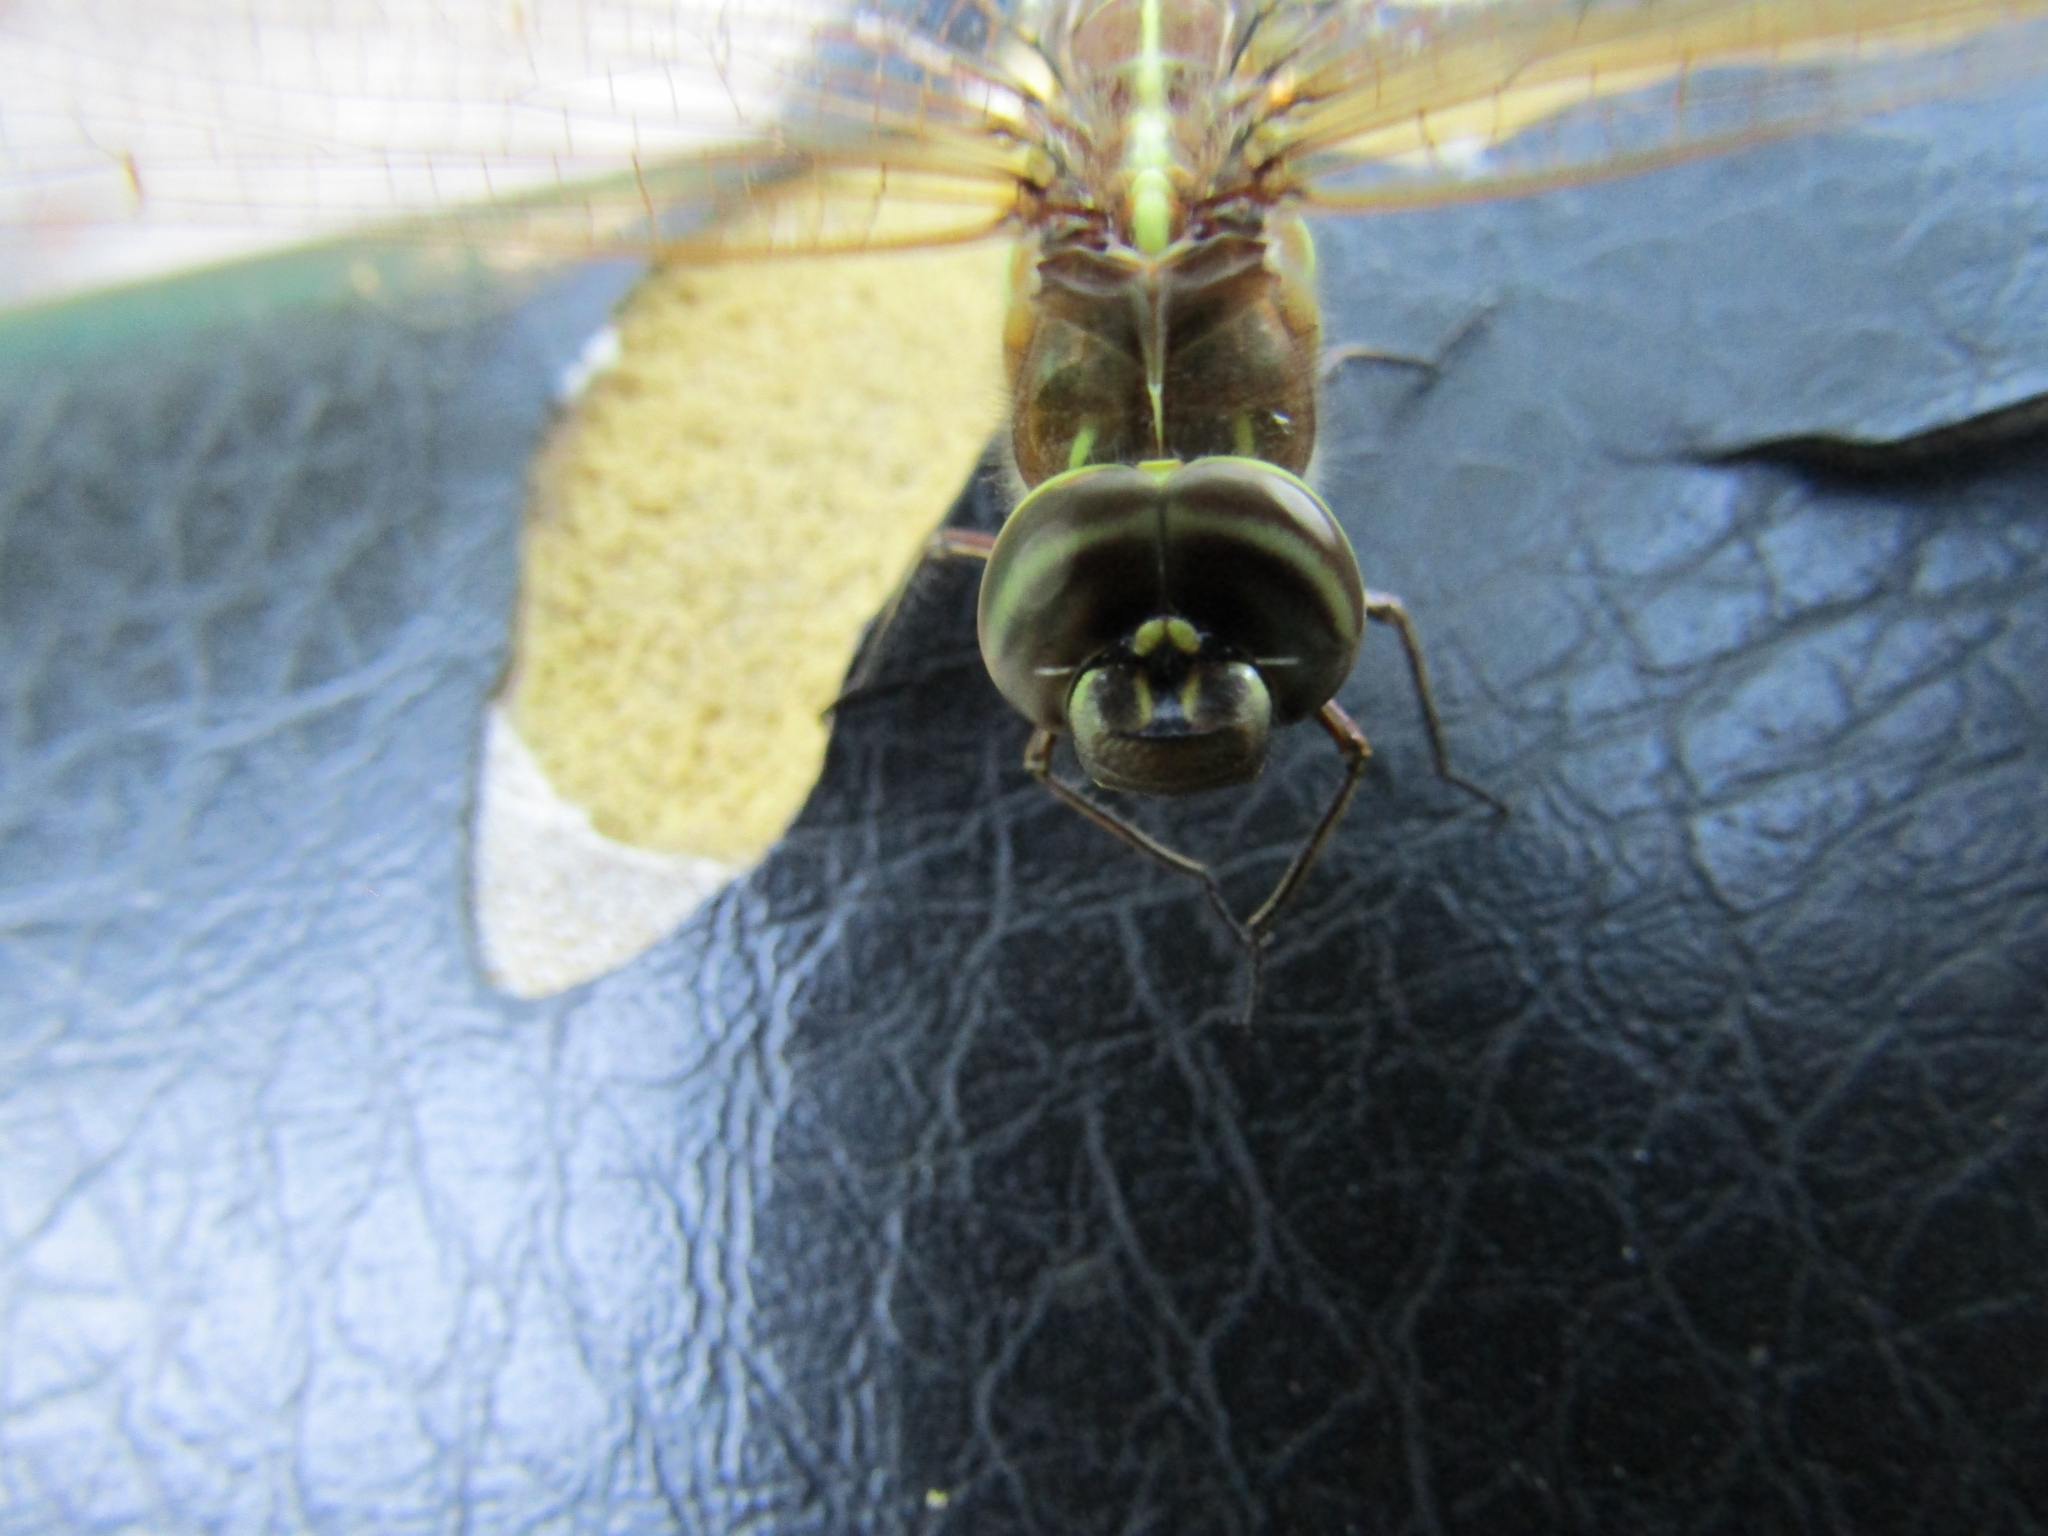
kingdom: Animalia
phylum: Arthropoda
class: Insecta
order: Odonata
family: Aeshnidae
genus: Rhionaeschna
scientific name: Rhionaeschna bonariensis
